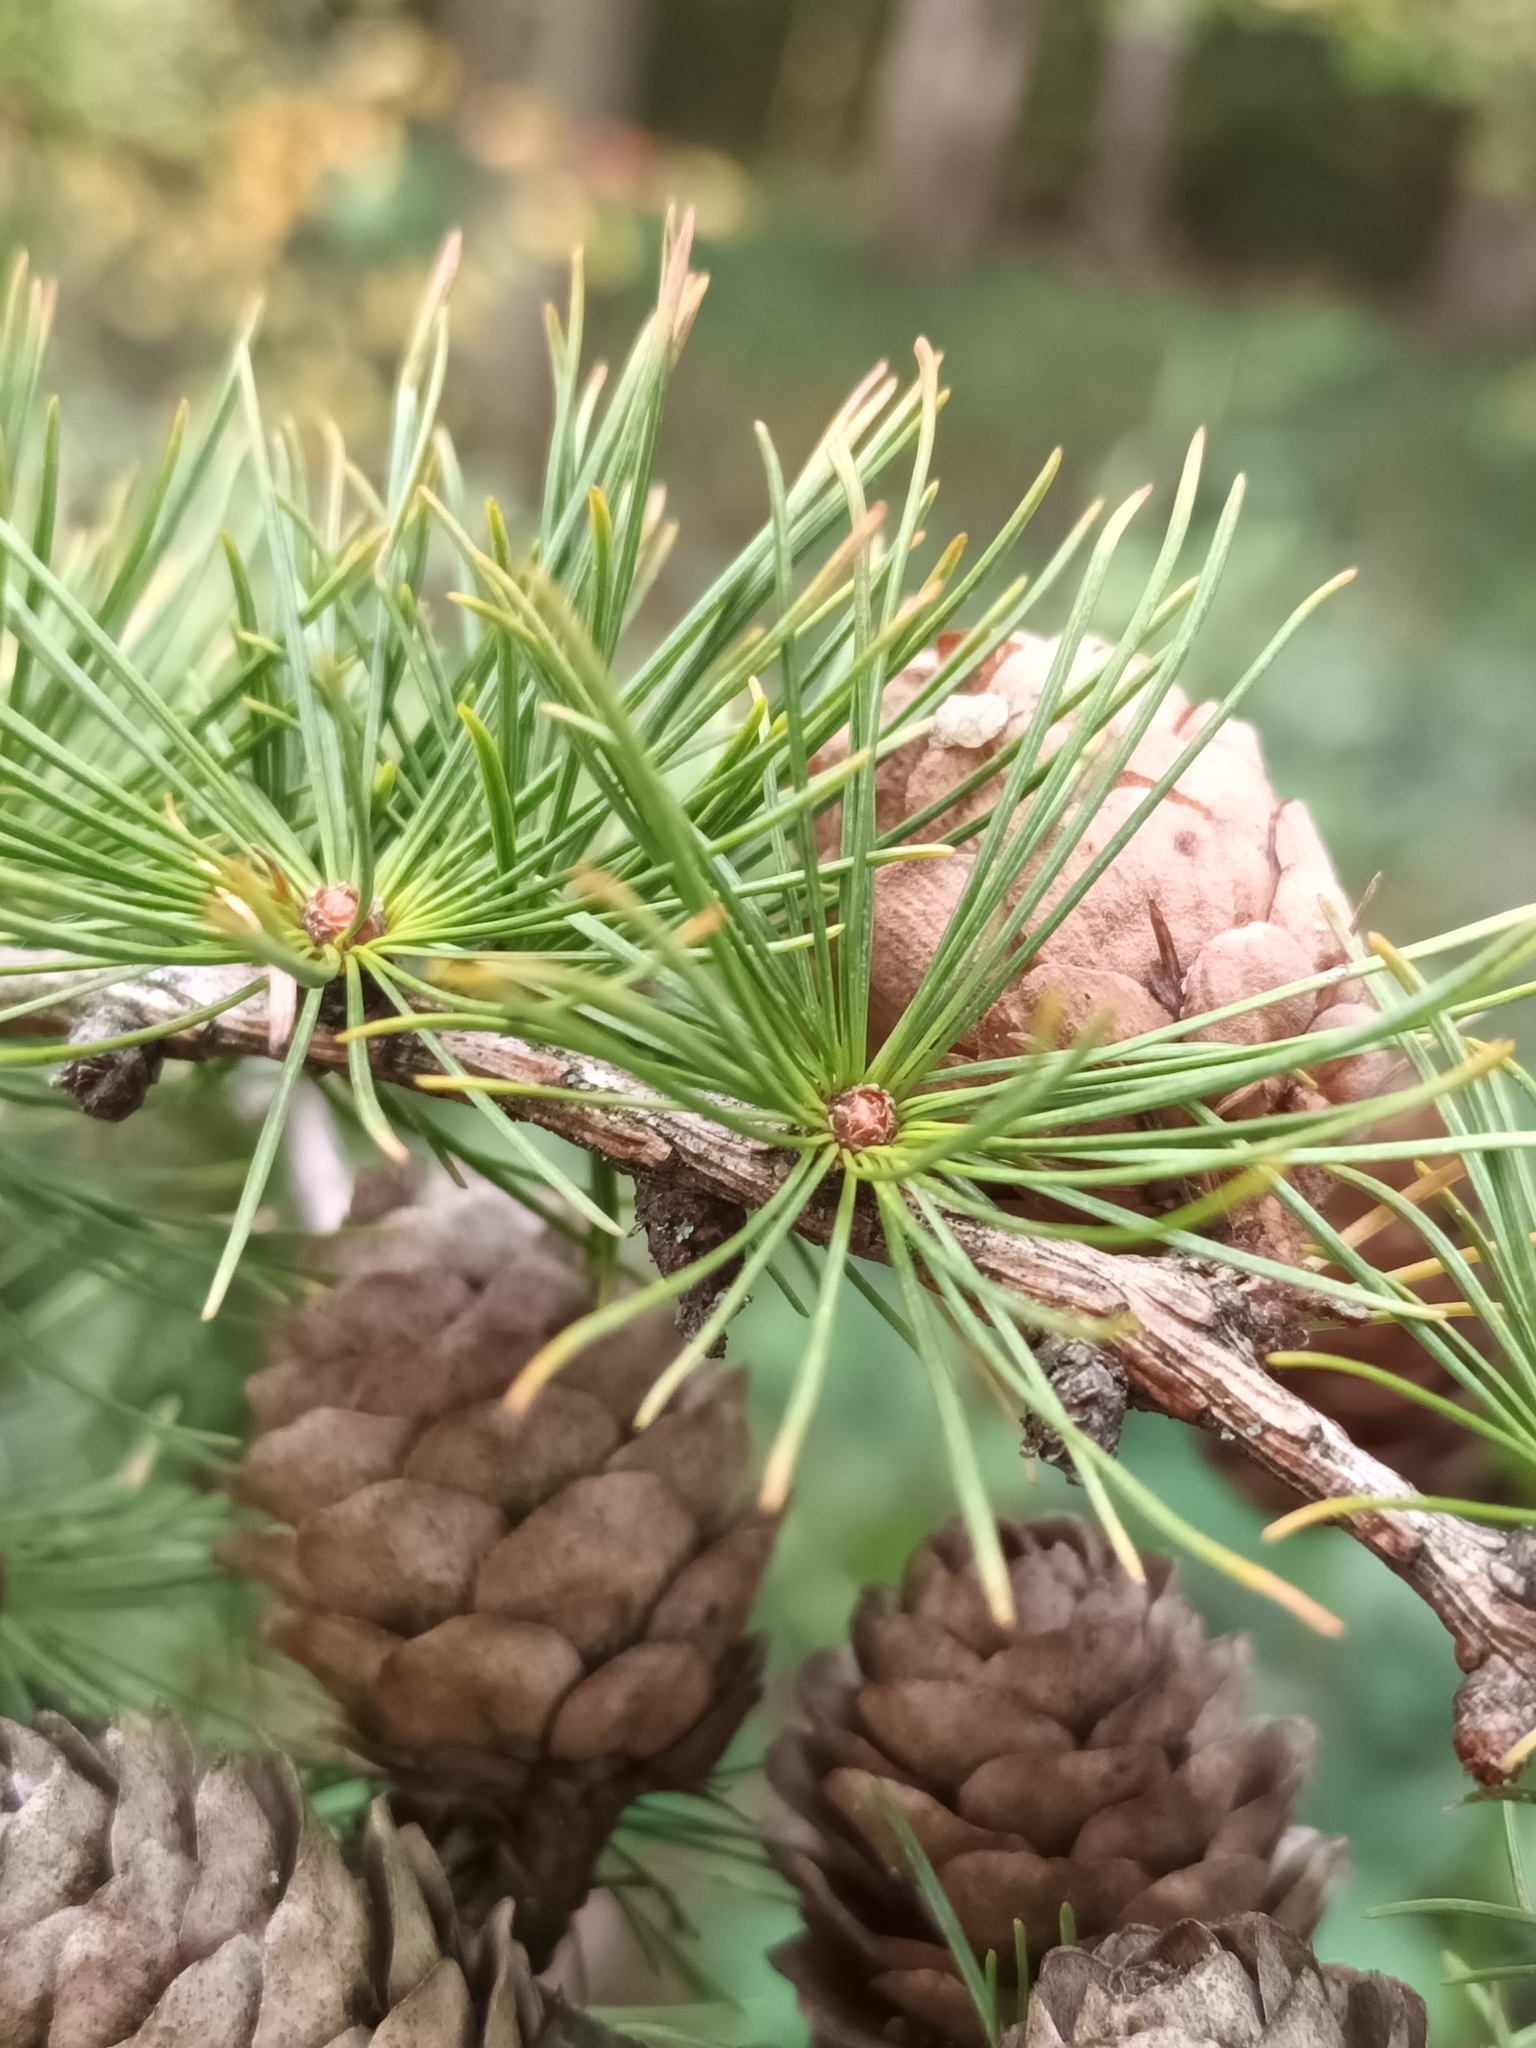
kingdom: Plantae
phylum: Tracheophyta
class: Pinopsida
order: Pinales
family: Pinaceae
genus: Larix
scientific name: Larix decidua
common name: European larch
